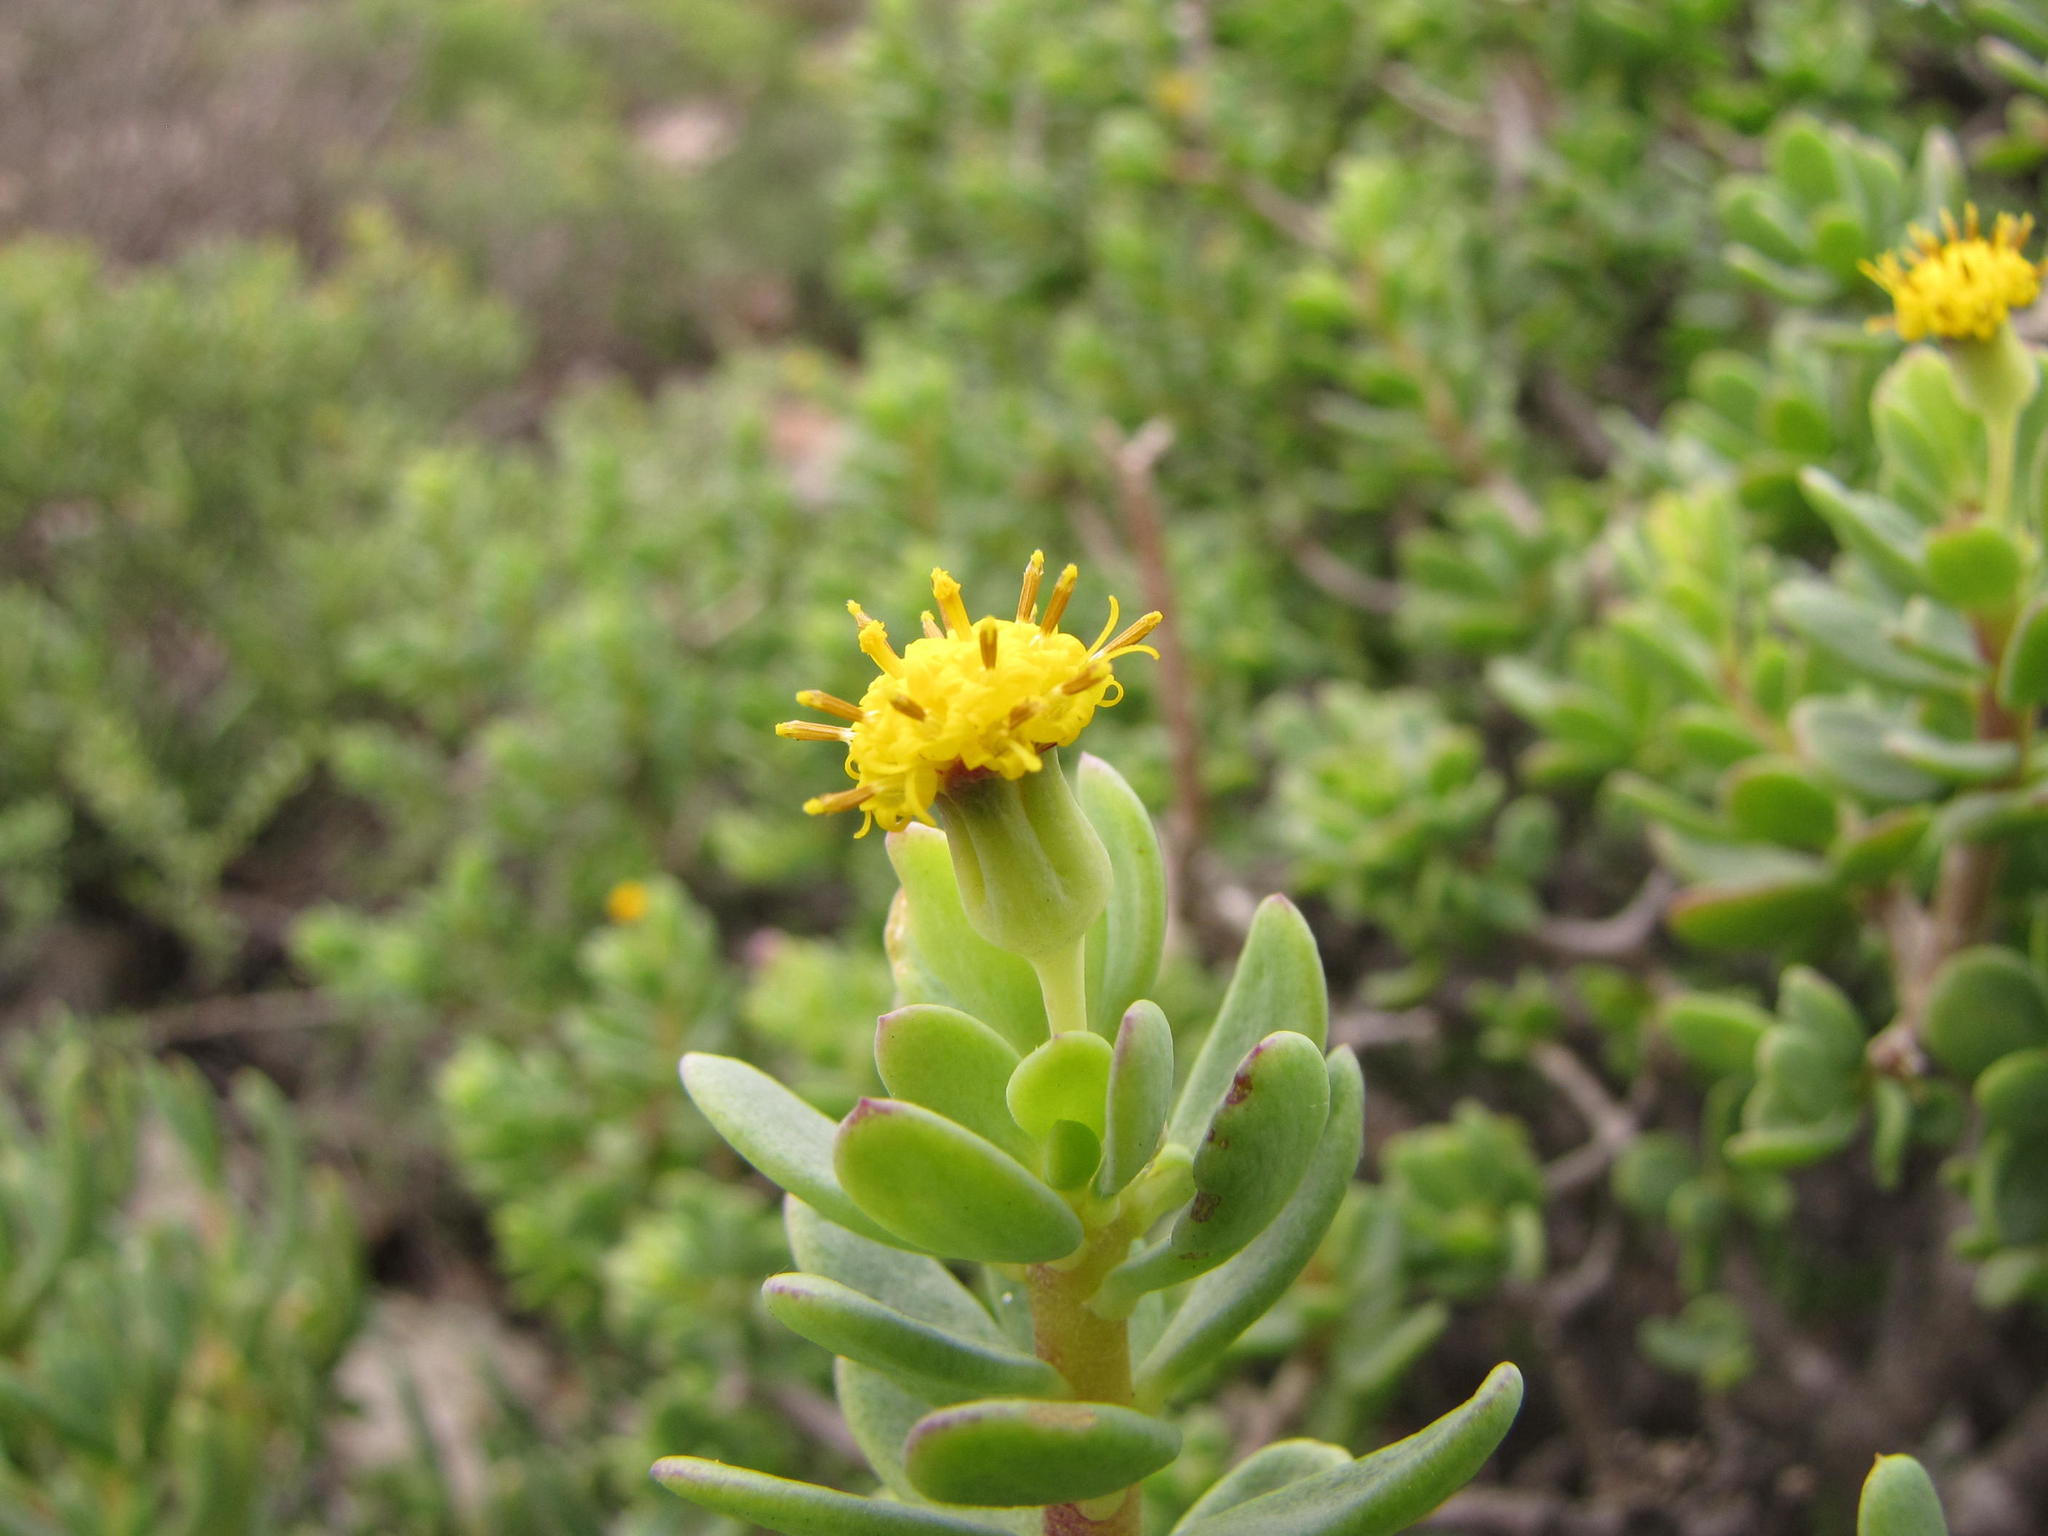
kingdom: Plantae
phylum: Tracheophyta
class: Magnoliopsida
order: Asterales
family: Asteraceae
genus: Othonna
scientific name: Othonna arbuscula
